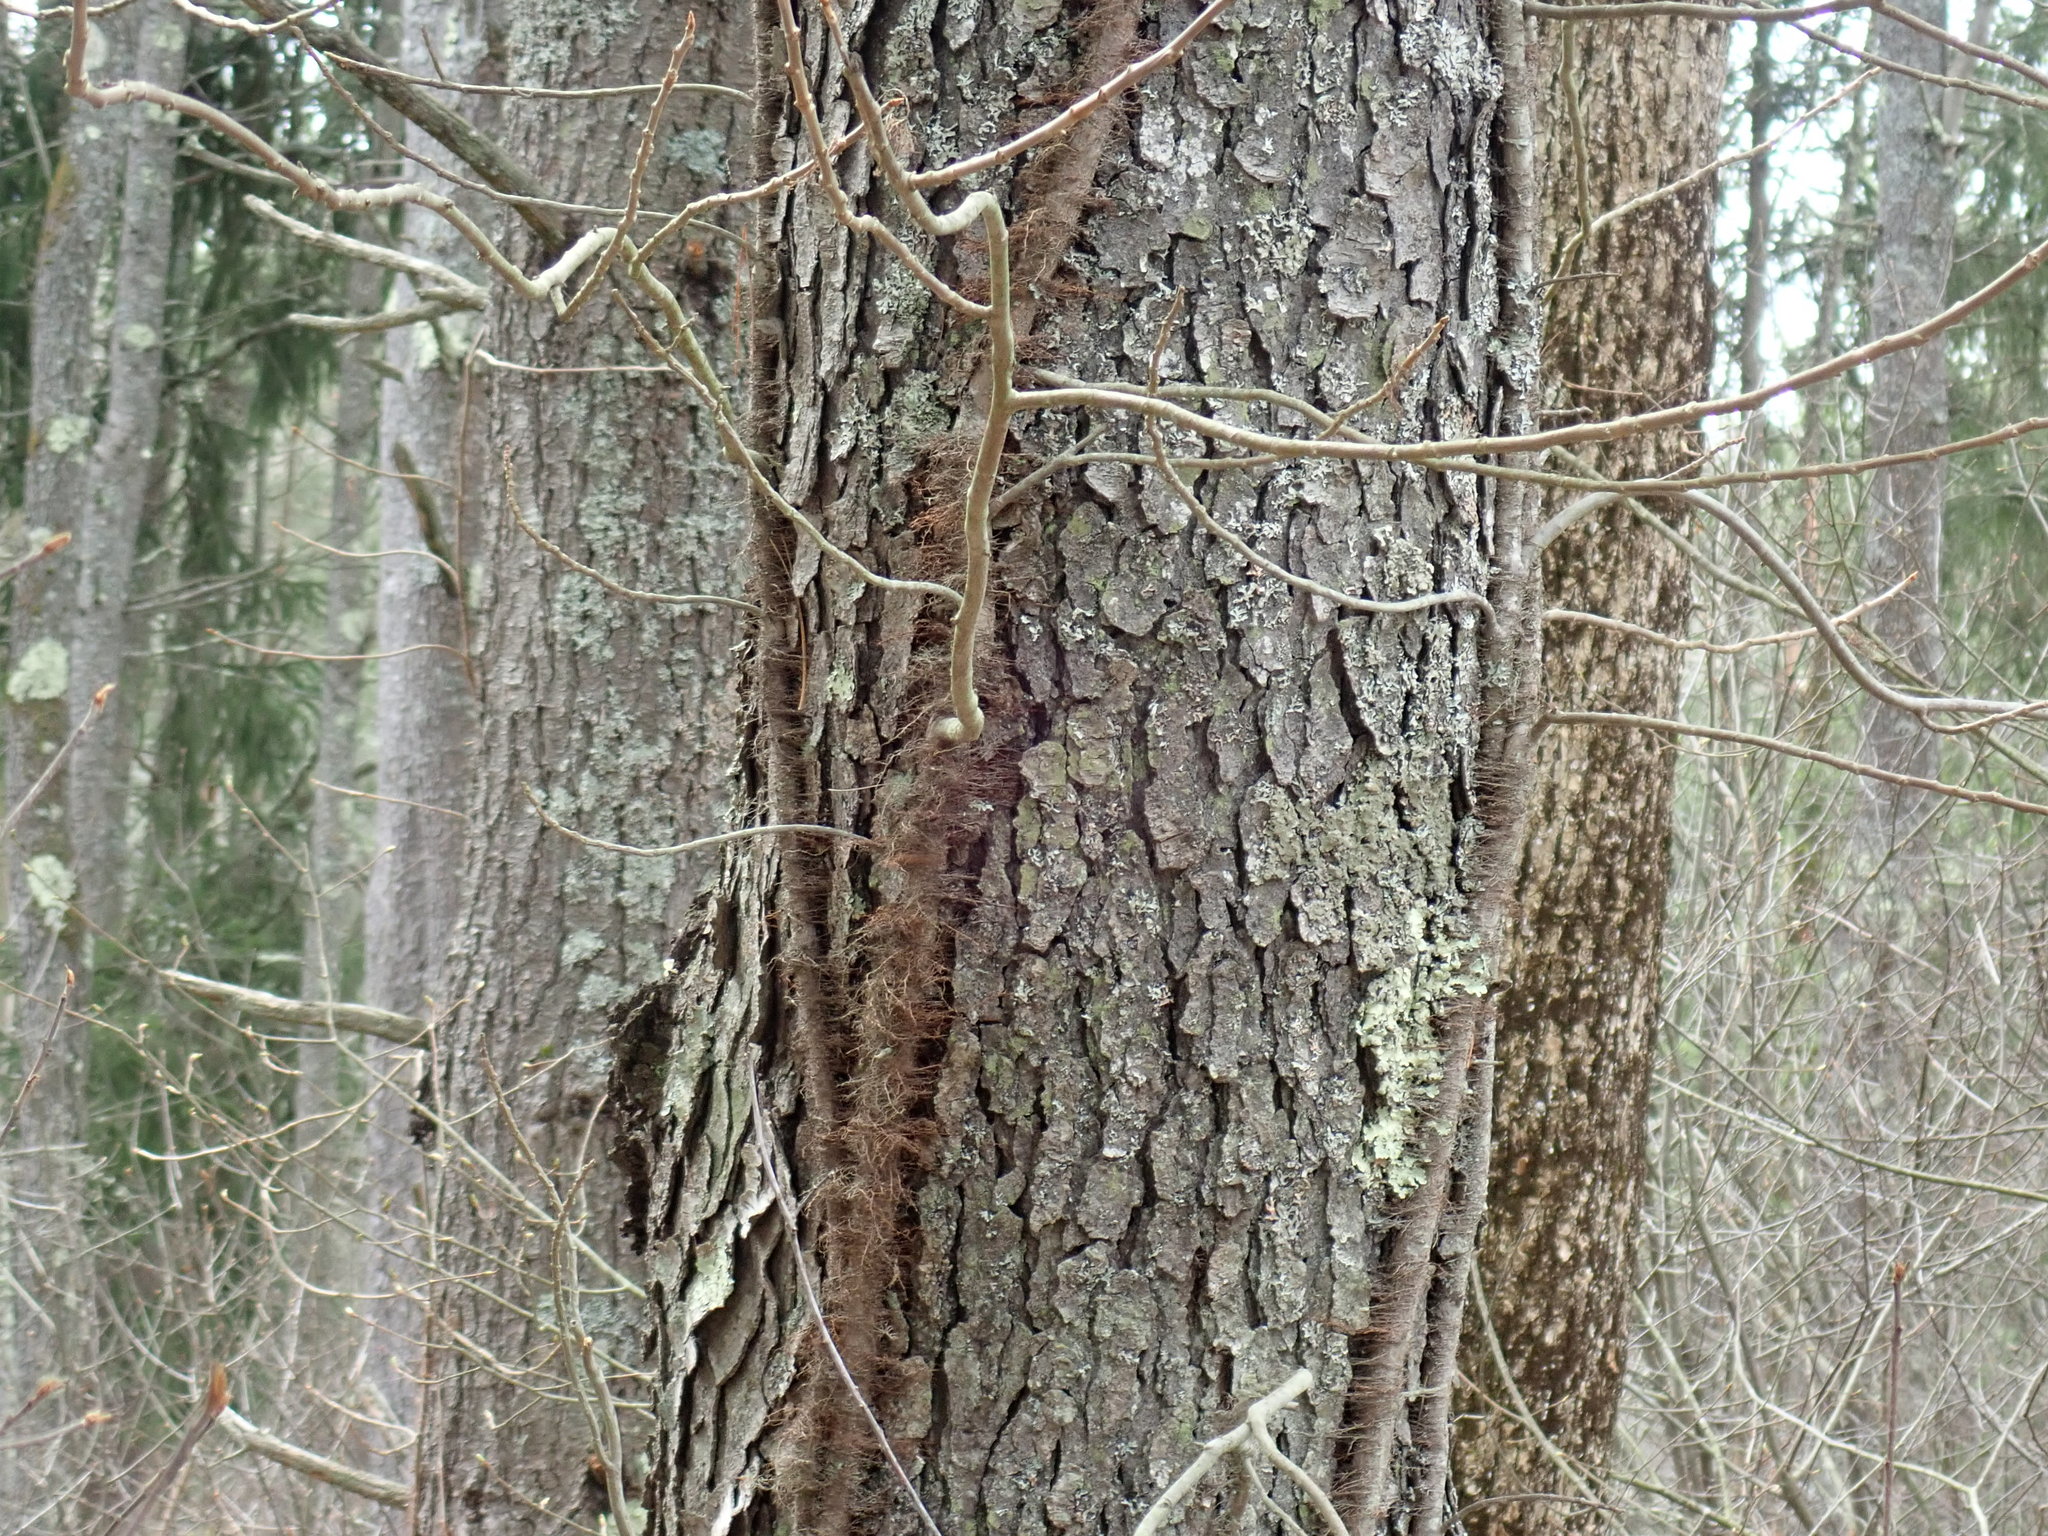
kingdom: Plantae
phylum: Tracheophyta
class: Magnoliopsida
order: Sapindales
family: Anacardiaceae
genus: Toxicodendron
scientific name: Toxicodendron radicans
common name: Poison ivy
